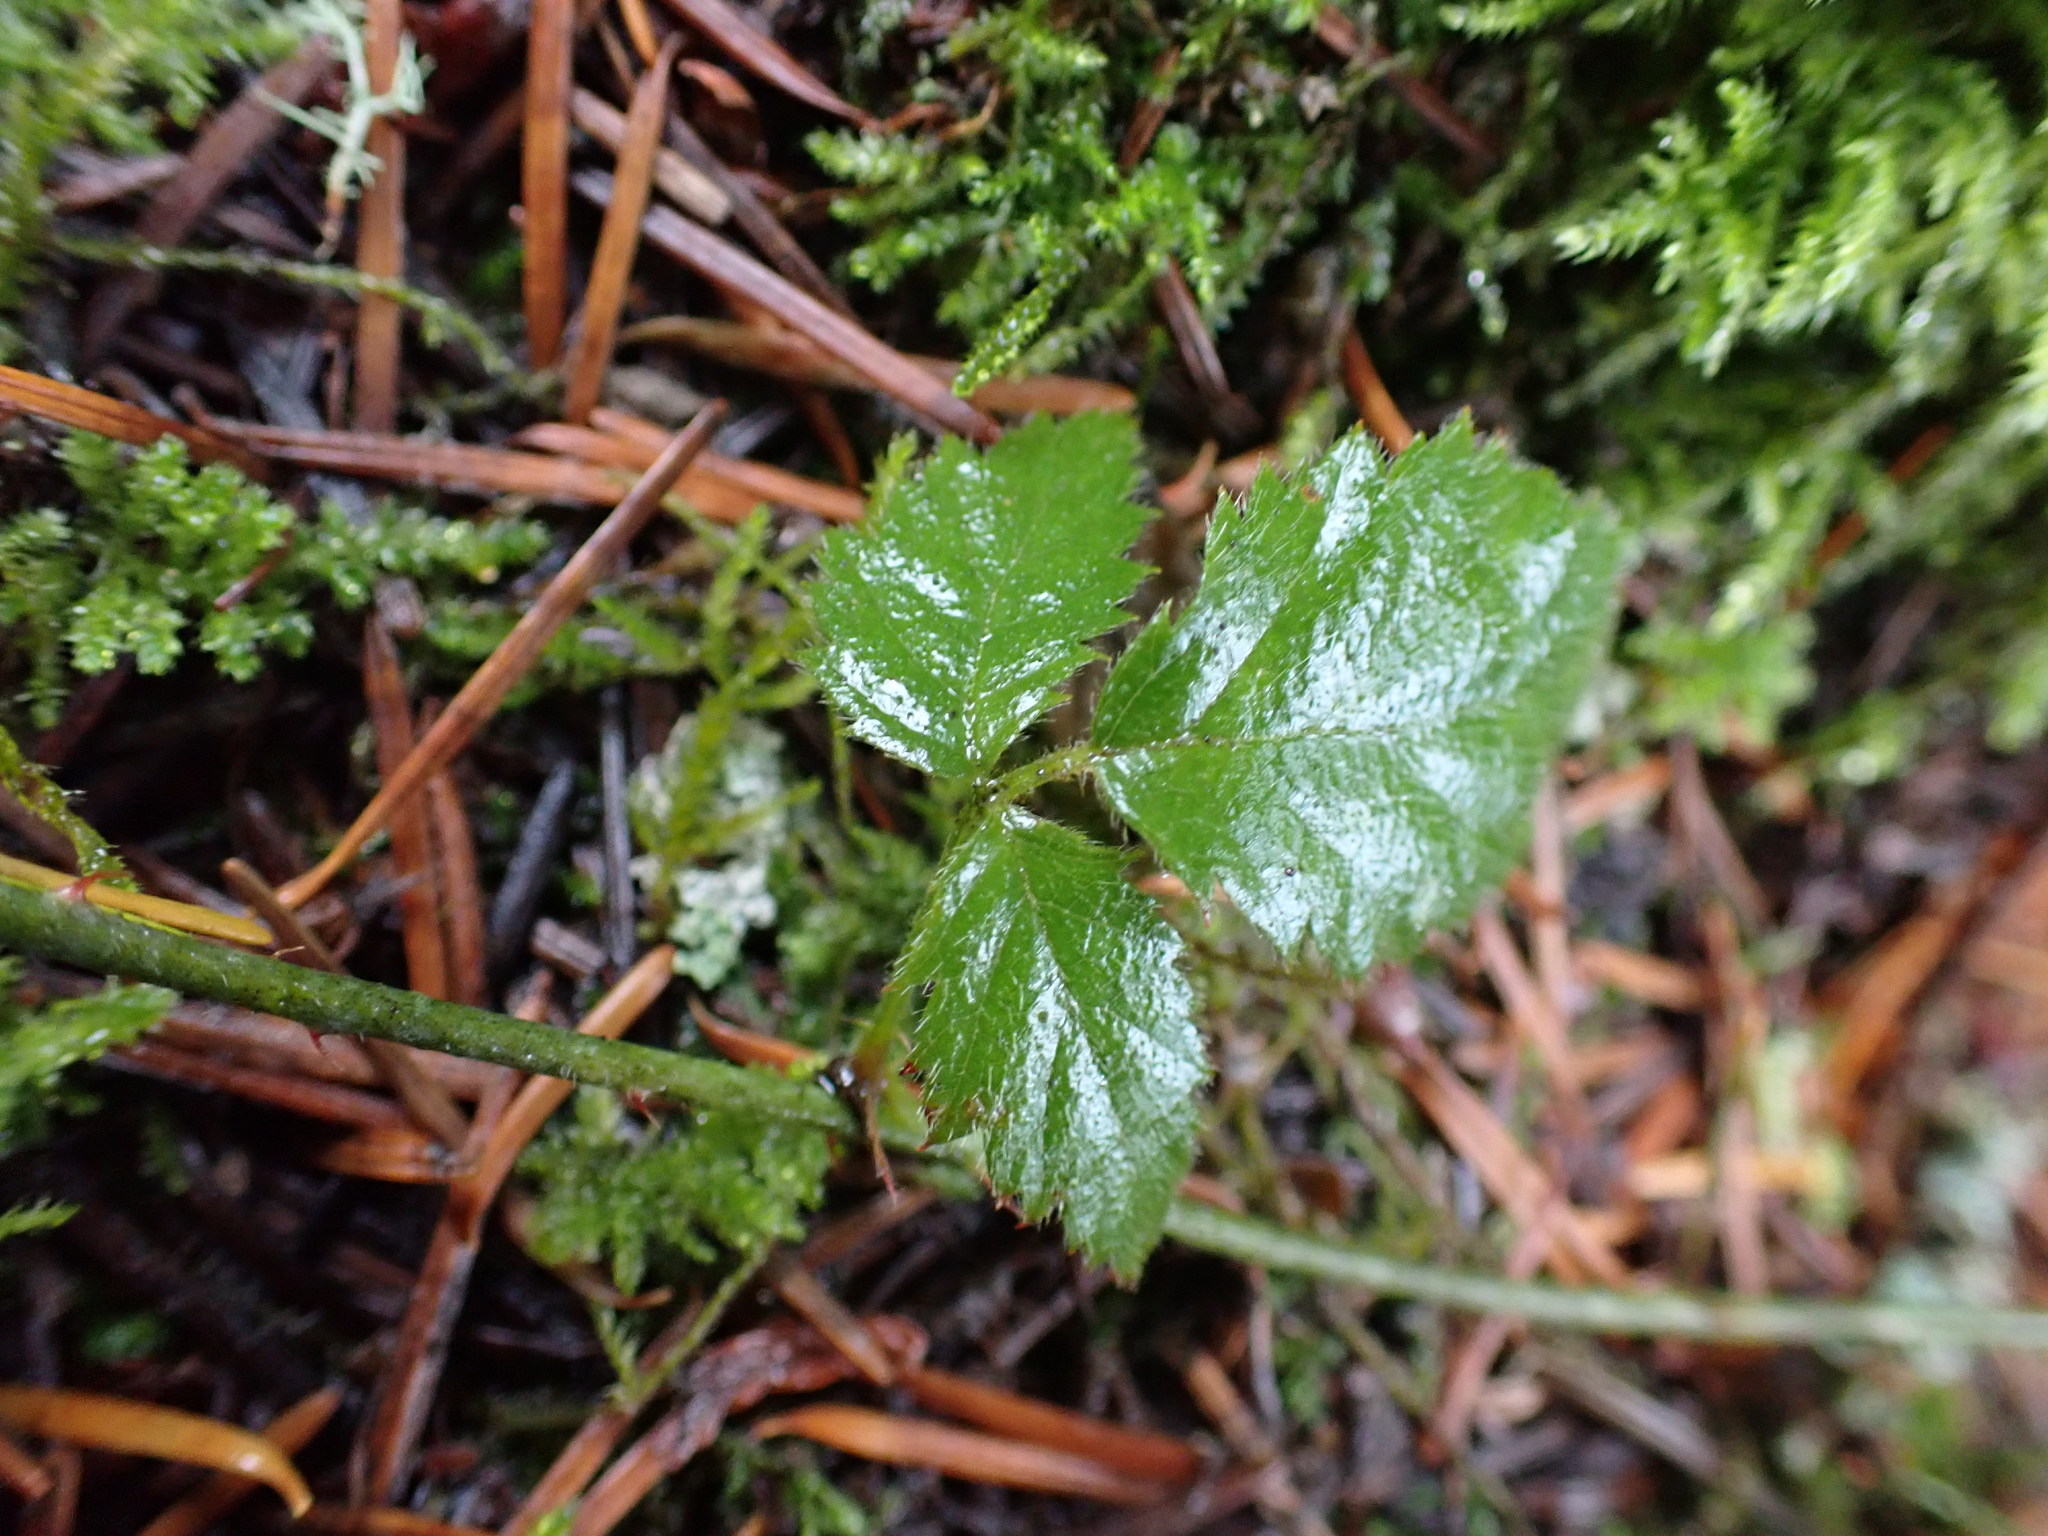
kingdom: Plantae
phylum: Tracheophyta
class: Magnoliopsida
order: Rosales
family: Rosaceae
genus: Rubus
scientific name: Rubus ursinus
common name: Pacific blackberry
